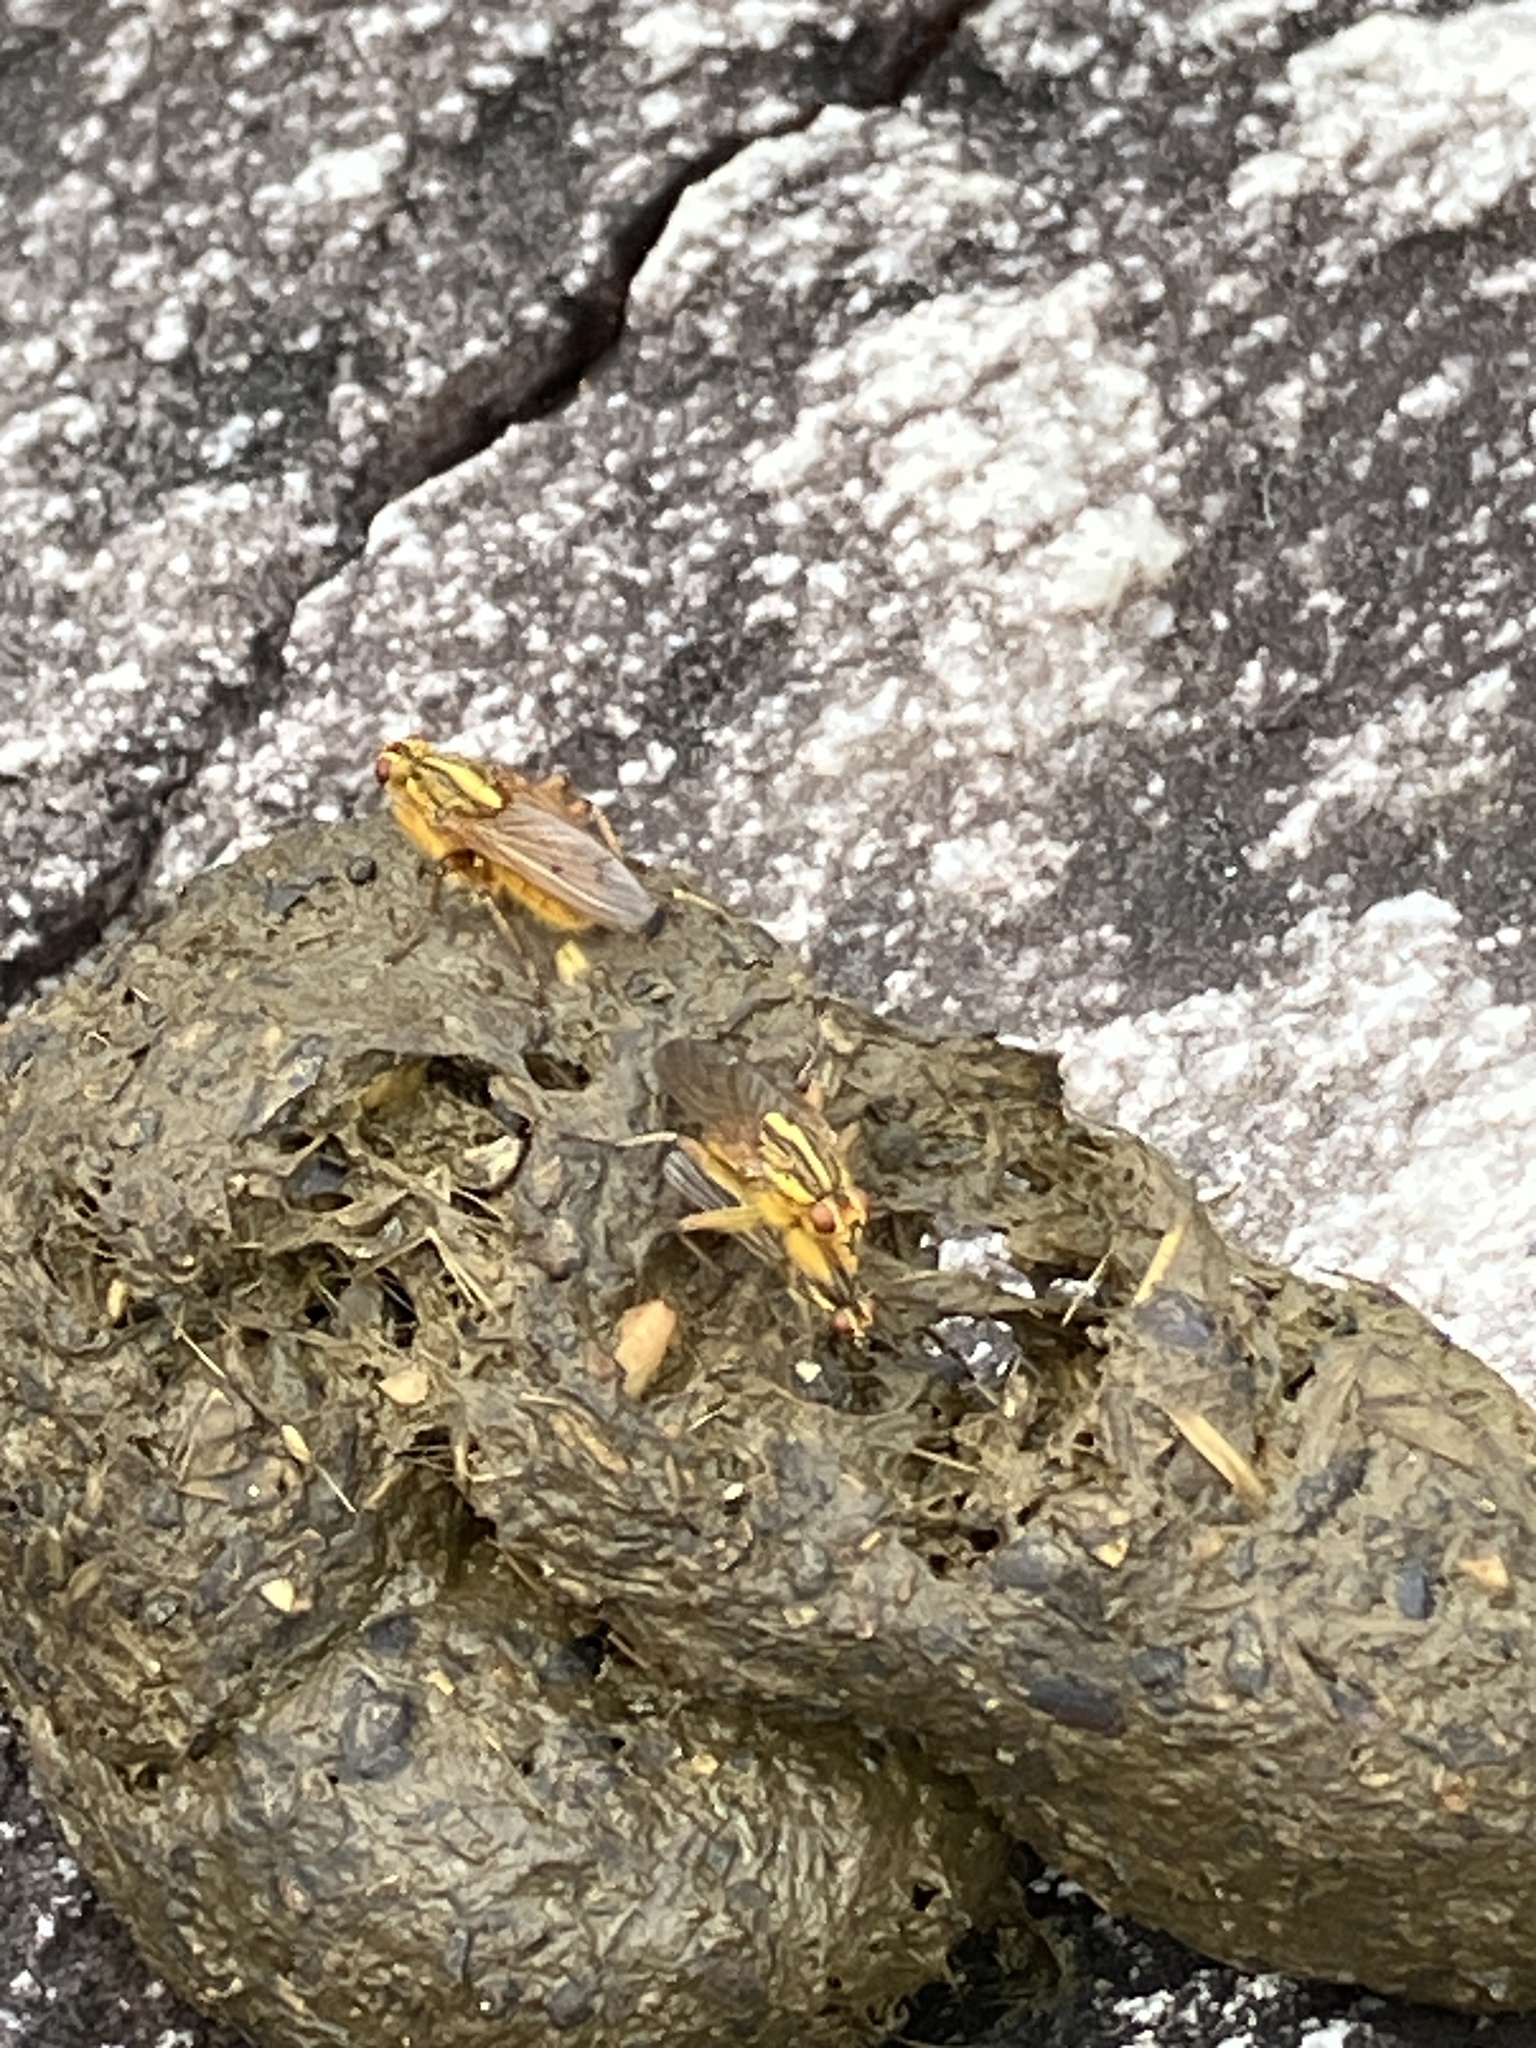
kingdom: Animalia
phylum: Arthropoda
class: Insecta
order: Diptera
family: Scathophagidae
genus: Scathophaga
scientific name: Scathophaga soror
